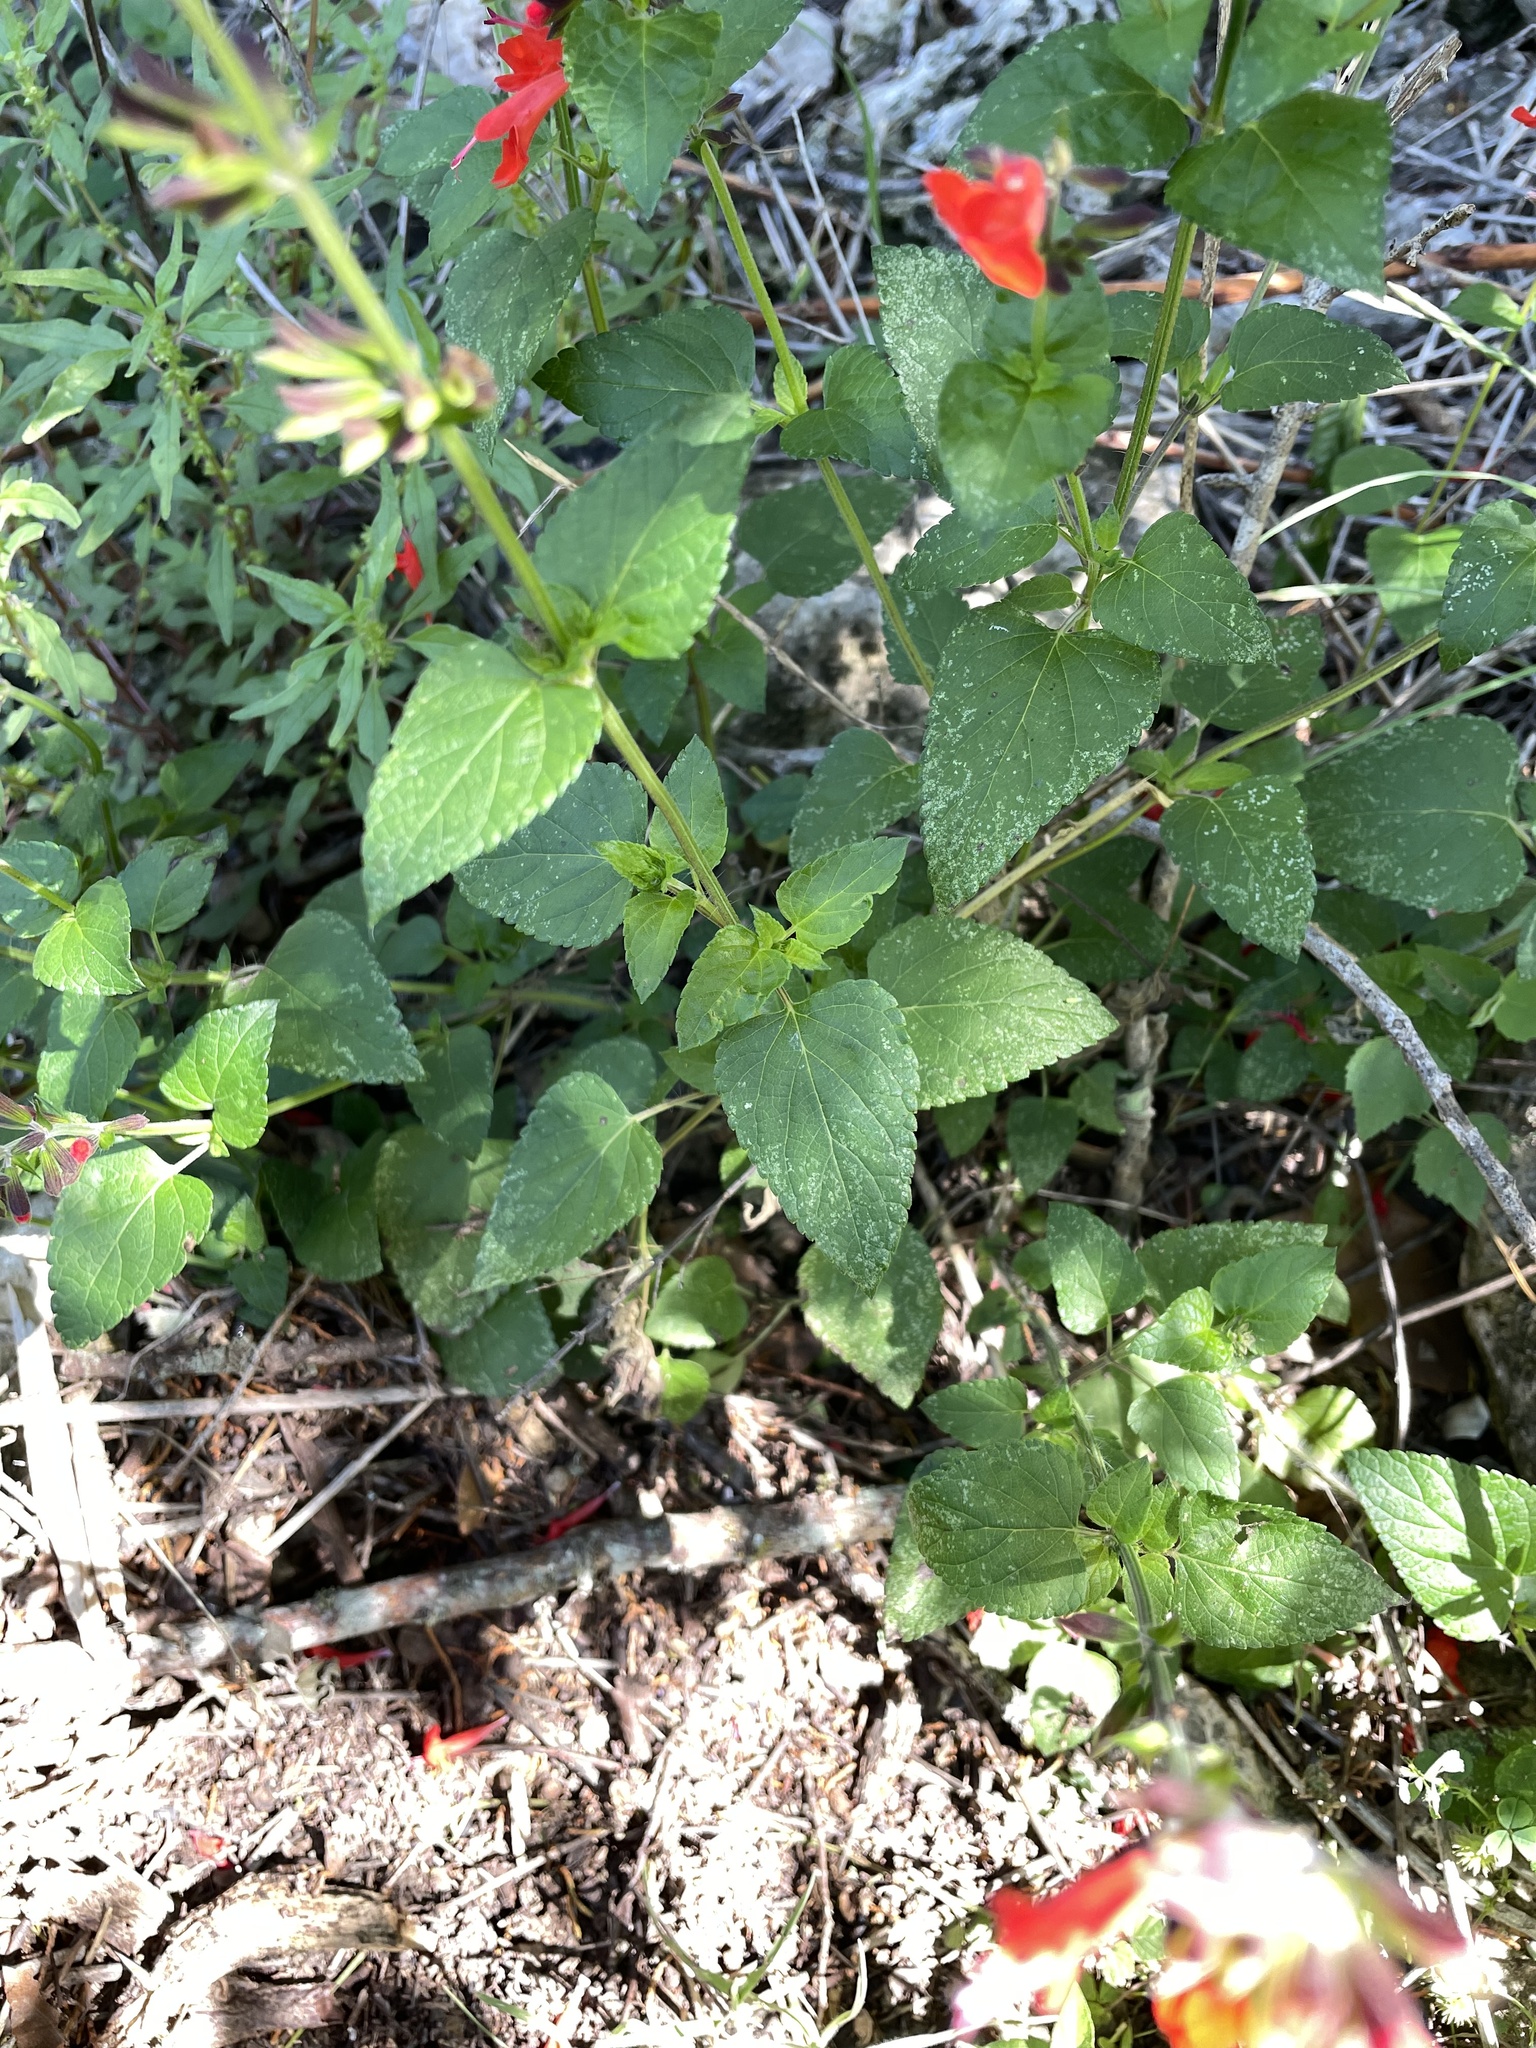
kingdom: Plantae
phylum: Tracheophyta
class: Magnoliopsida
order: Lamiales
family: Lamiaceae
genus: Salvia
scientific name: Salvia coccinea
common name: Blood sage
